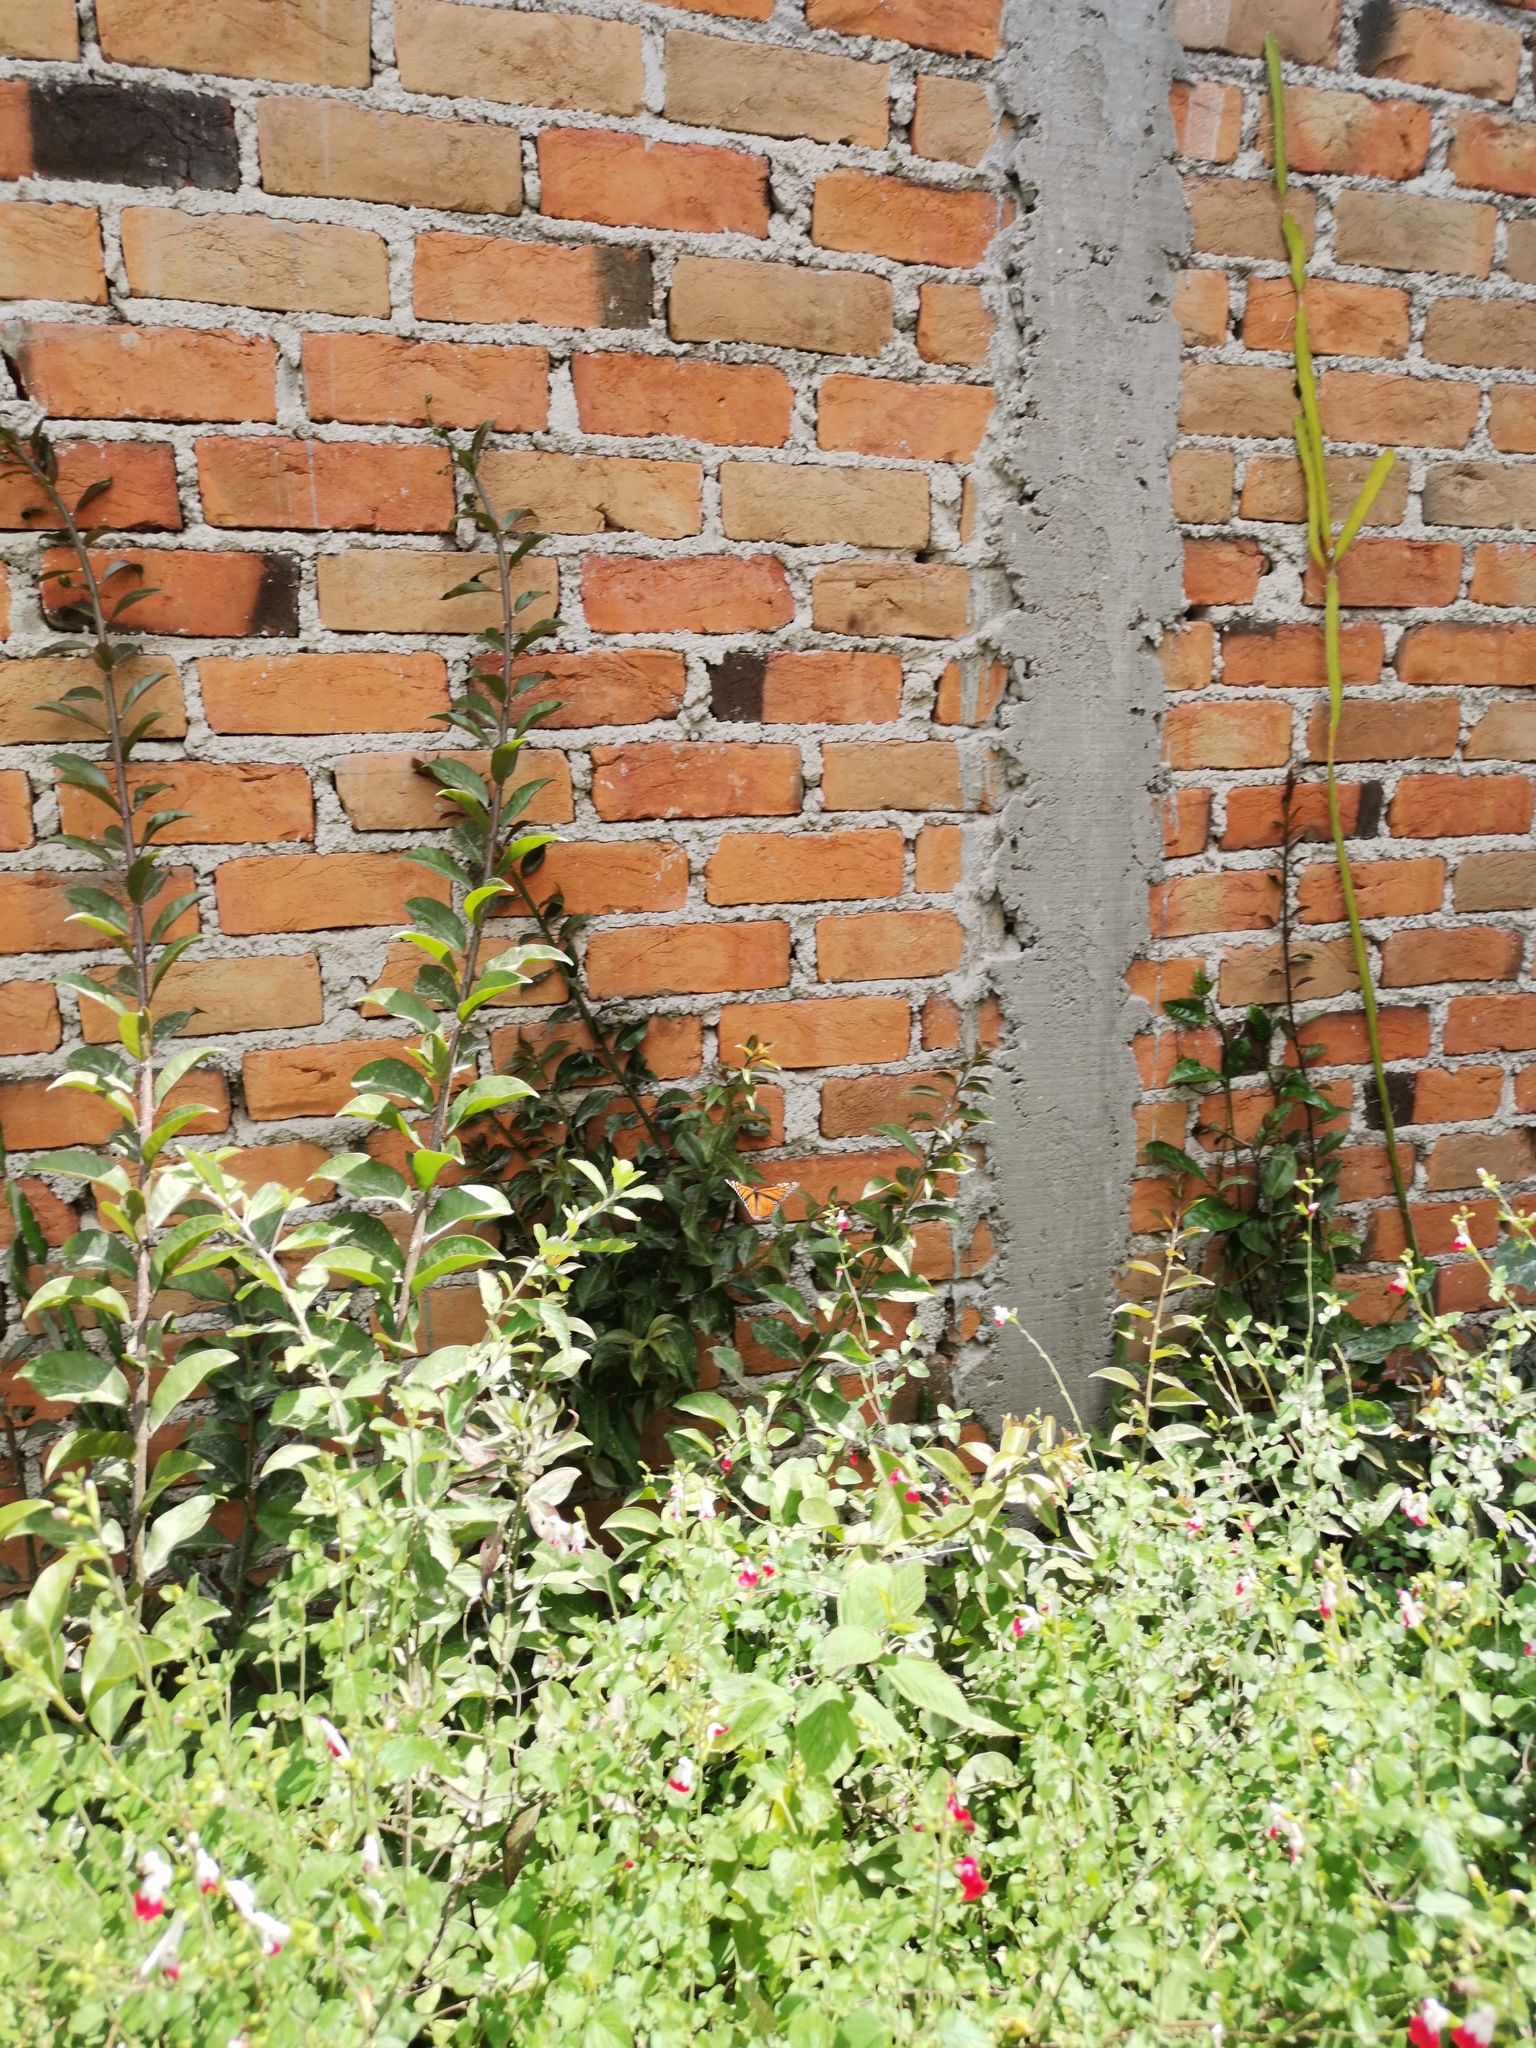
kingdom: Animalia
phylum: Arthropoda
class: Insecta
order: Lepidoptera
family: Nymphalidae
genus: Danaus
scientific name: Danaus plexippus
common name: Monarch
